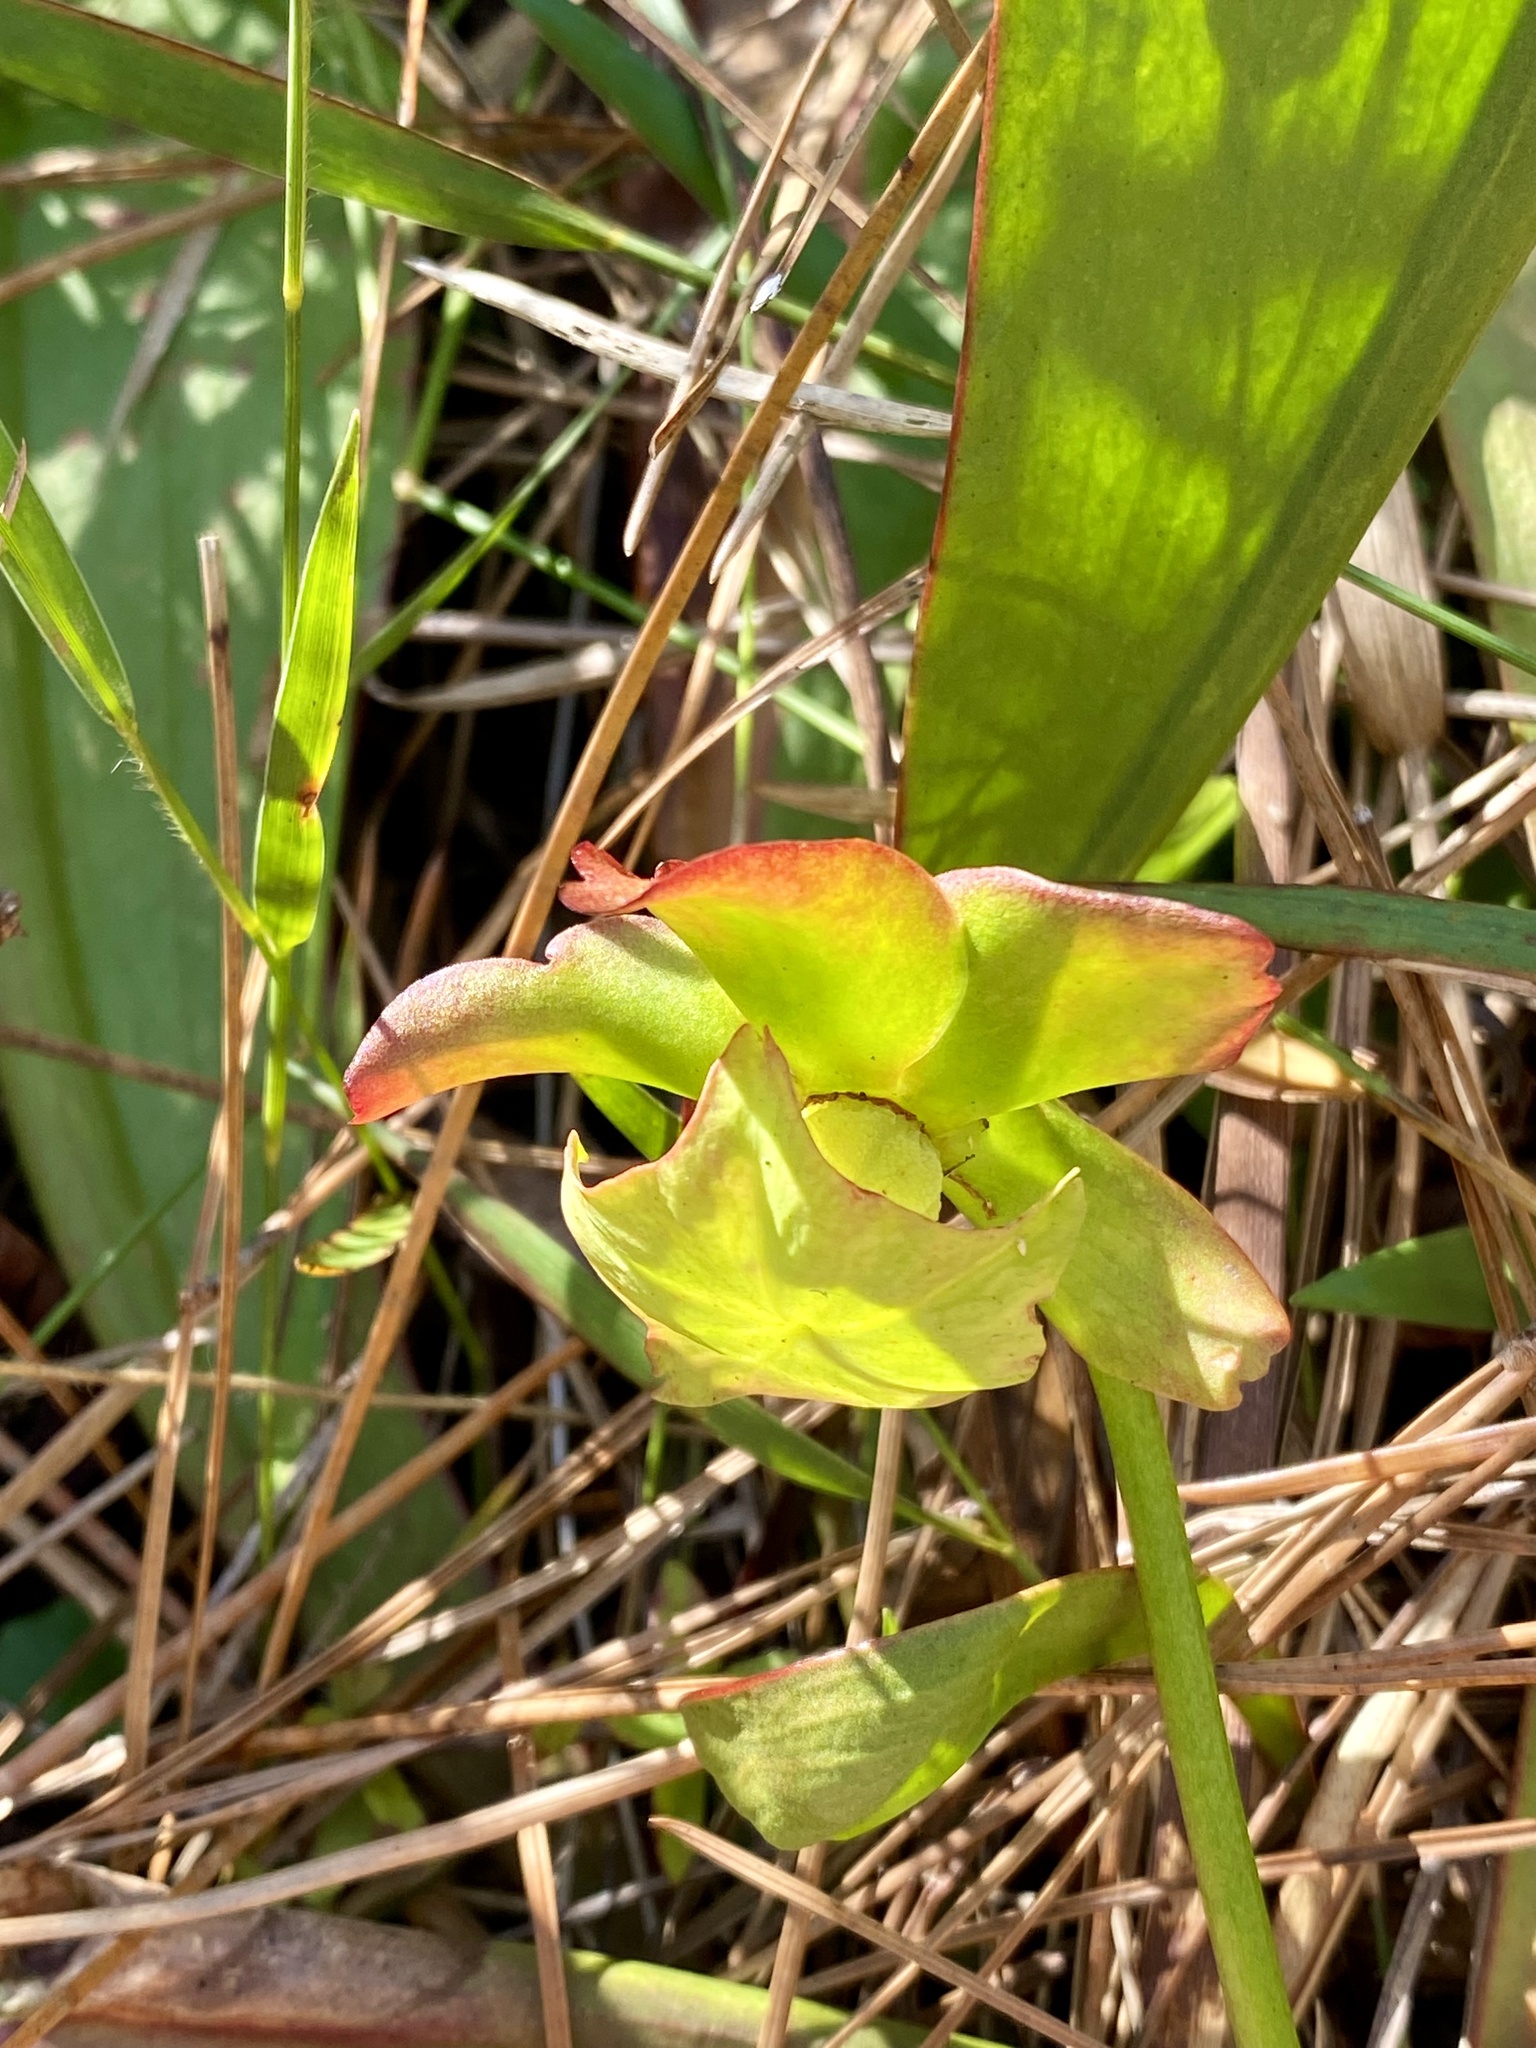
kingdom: Plantae
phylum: Tracheophyta
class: Magnoliopsida
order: Ericales
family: Sarraceniaceae
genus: Sarracenia
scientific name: Sarracenia minor
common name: Rainhat-trumpet
